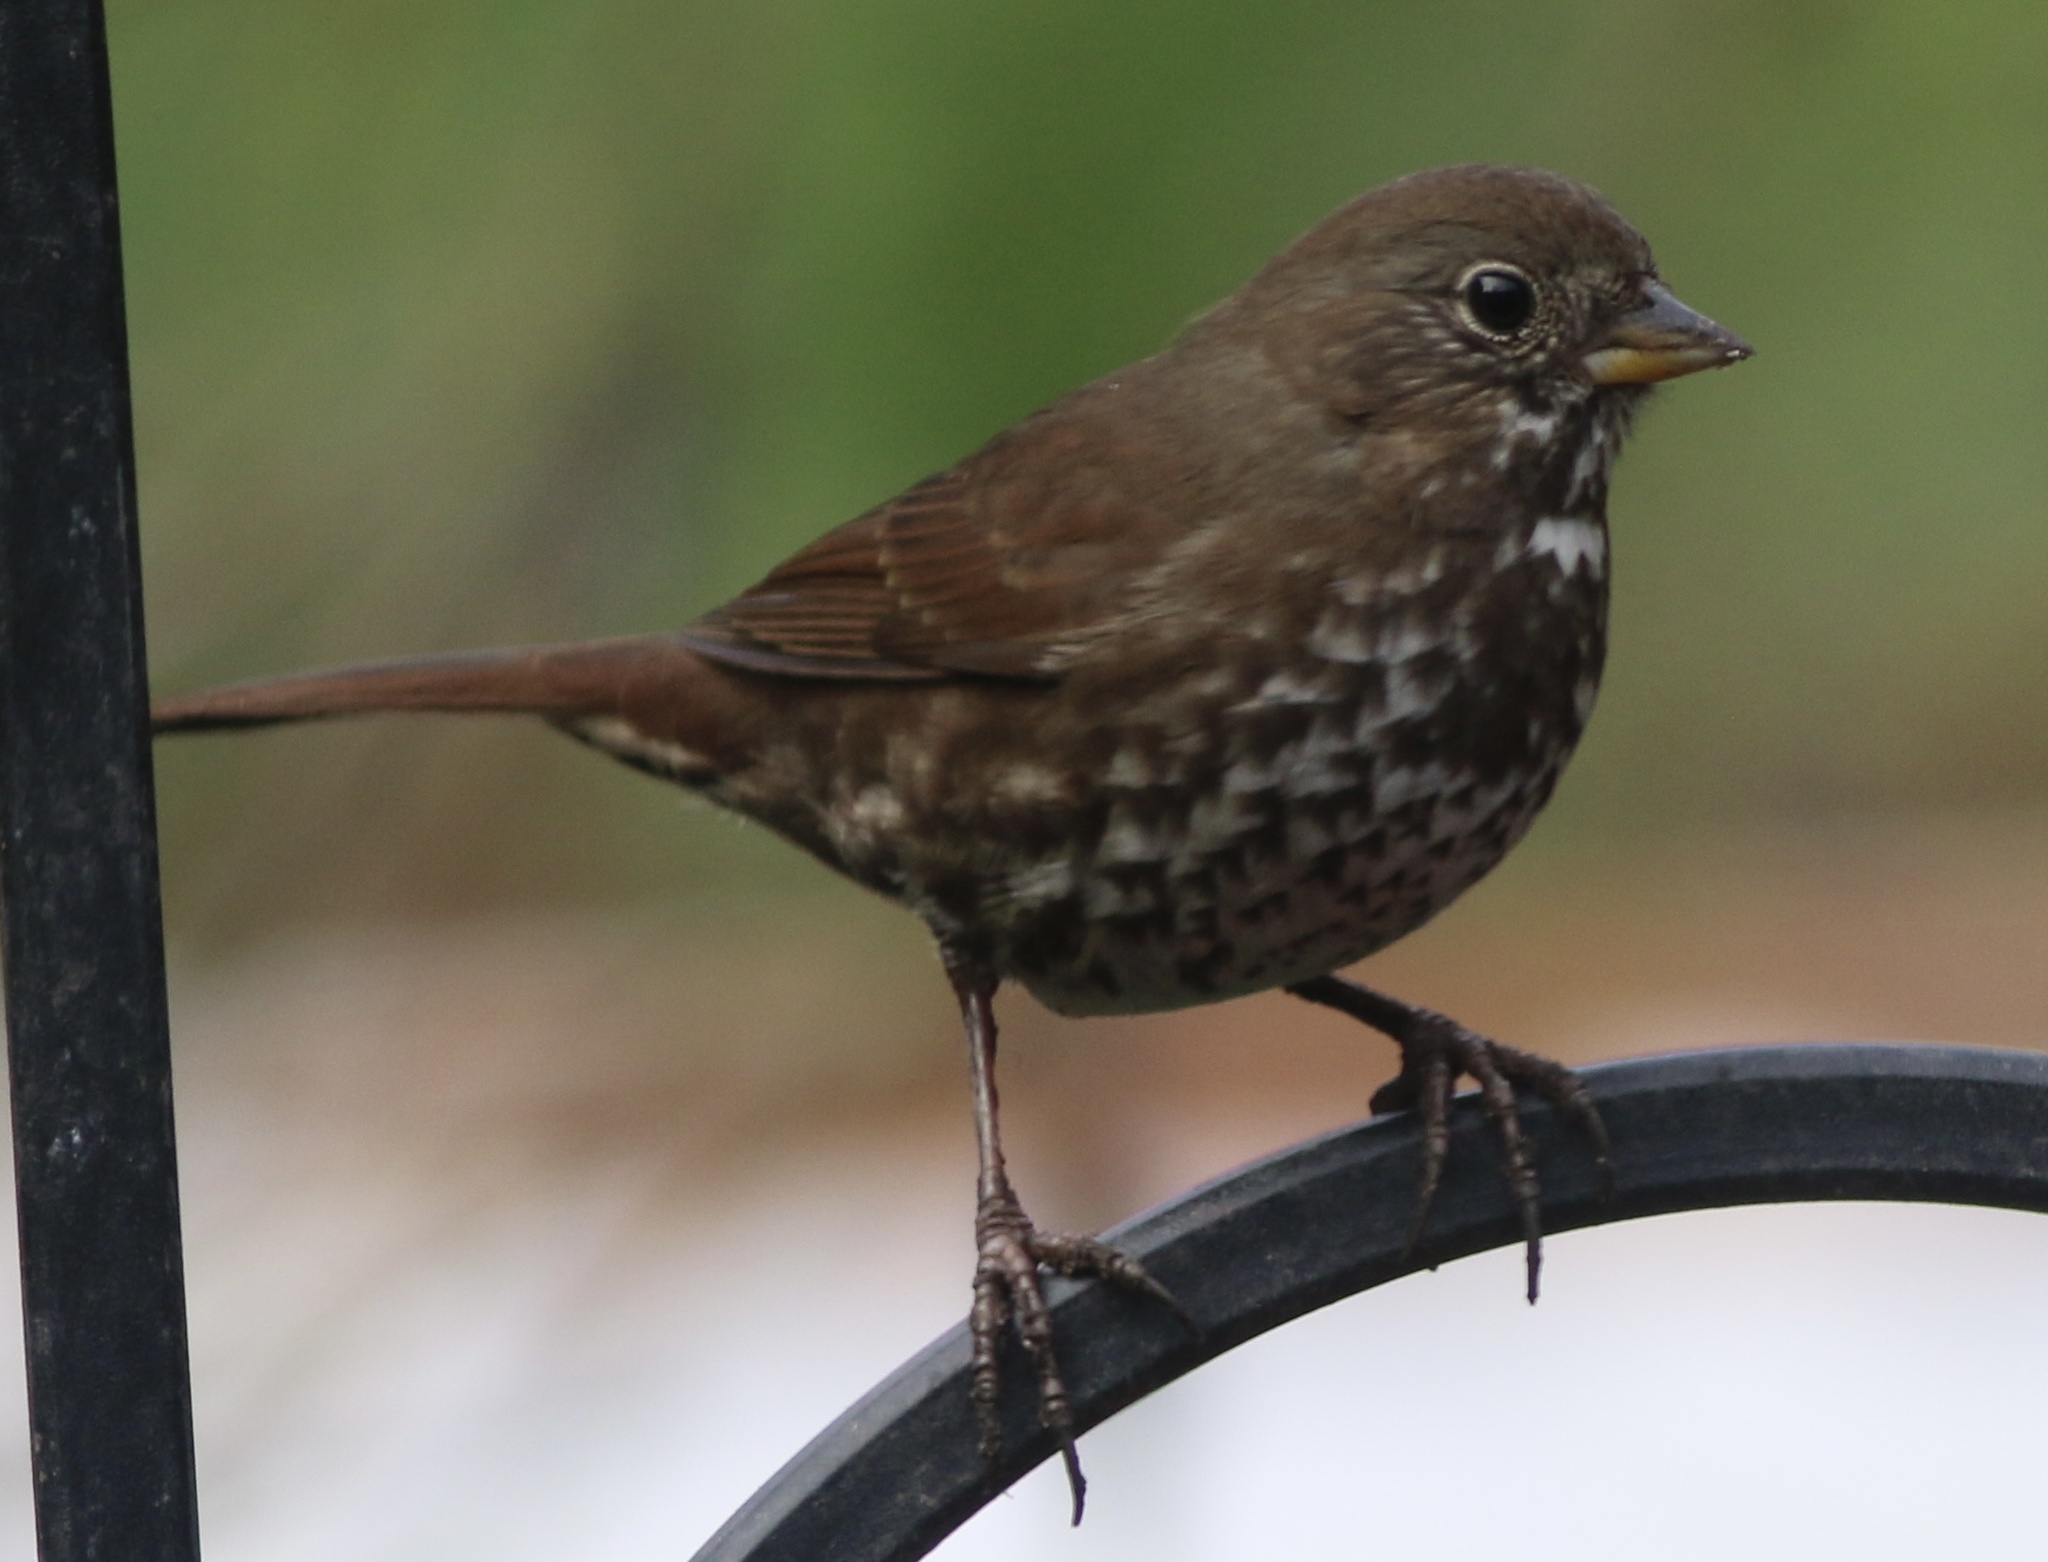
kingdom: Animalia
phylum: Chordata
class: Aves
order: Passeriformes
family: Passerellidae
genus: Passerella
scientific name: Passerella iliaca
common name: Fox sparrow
